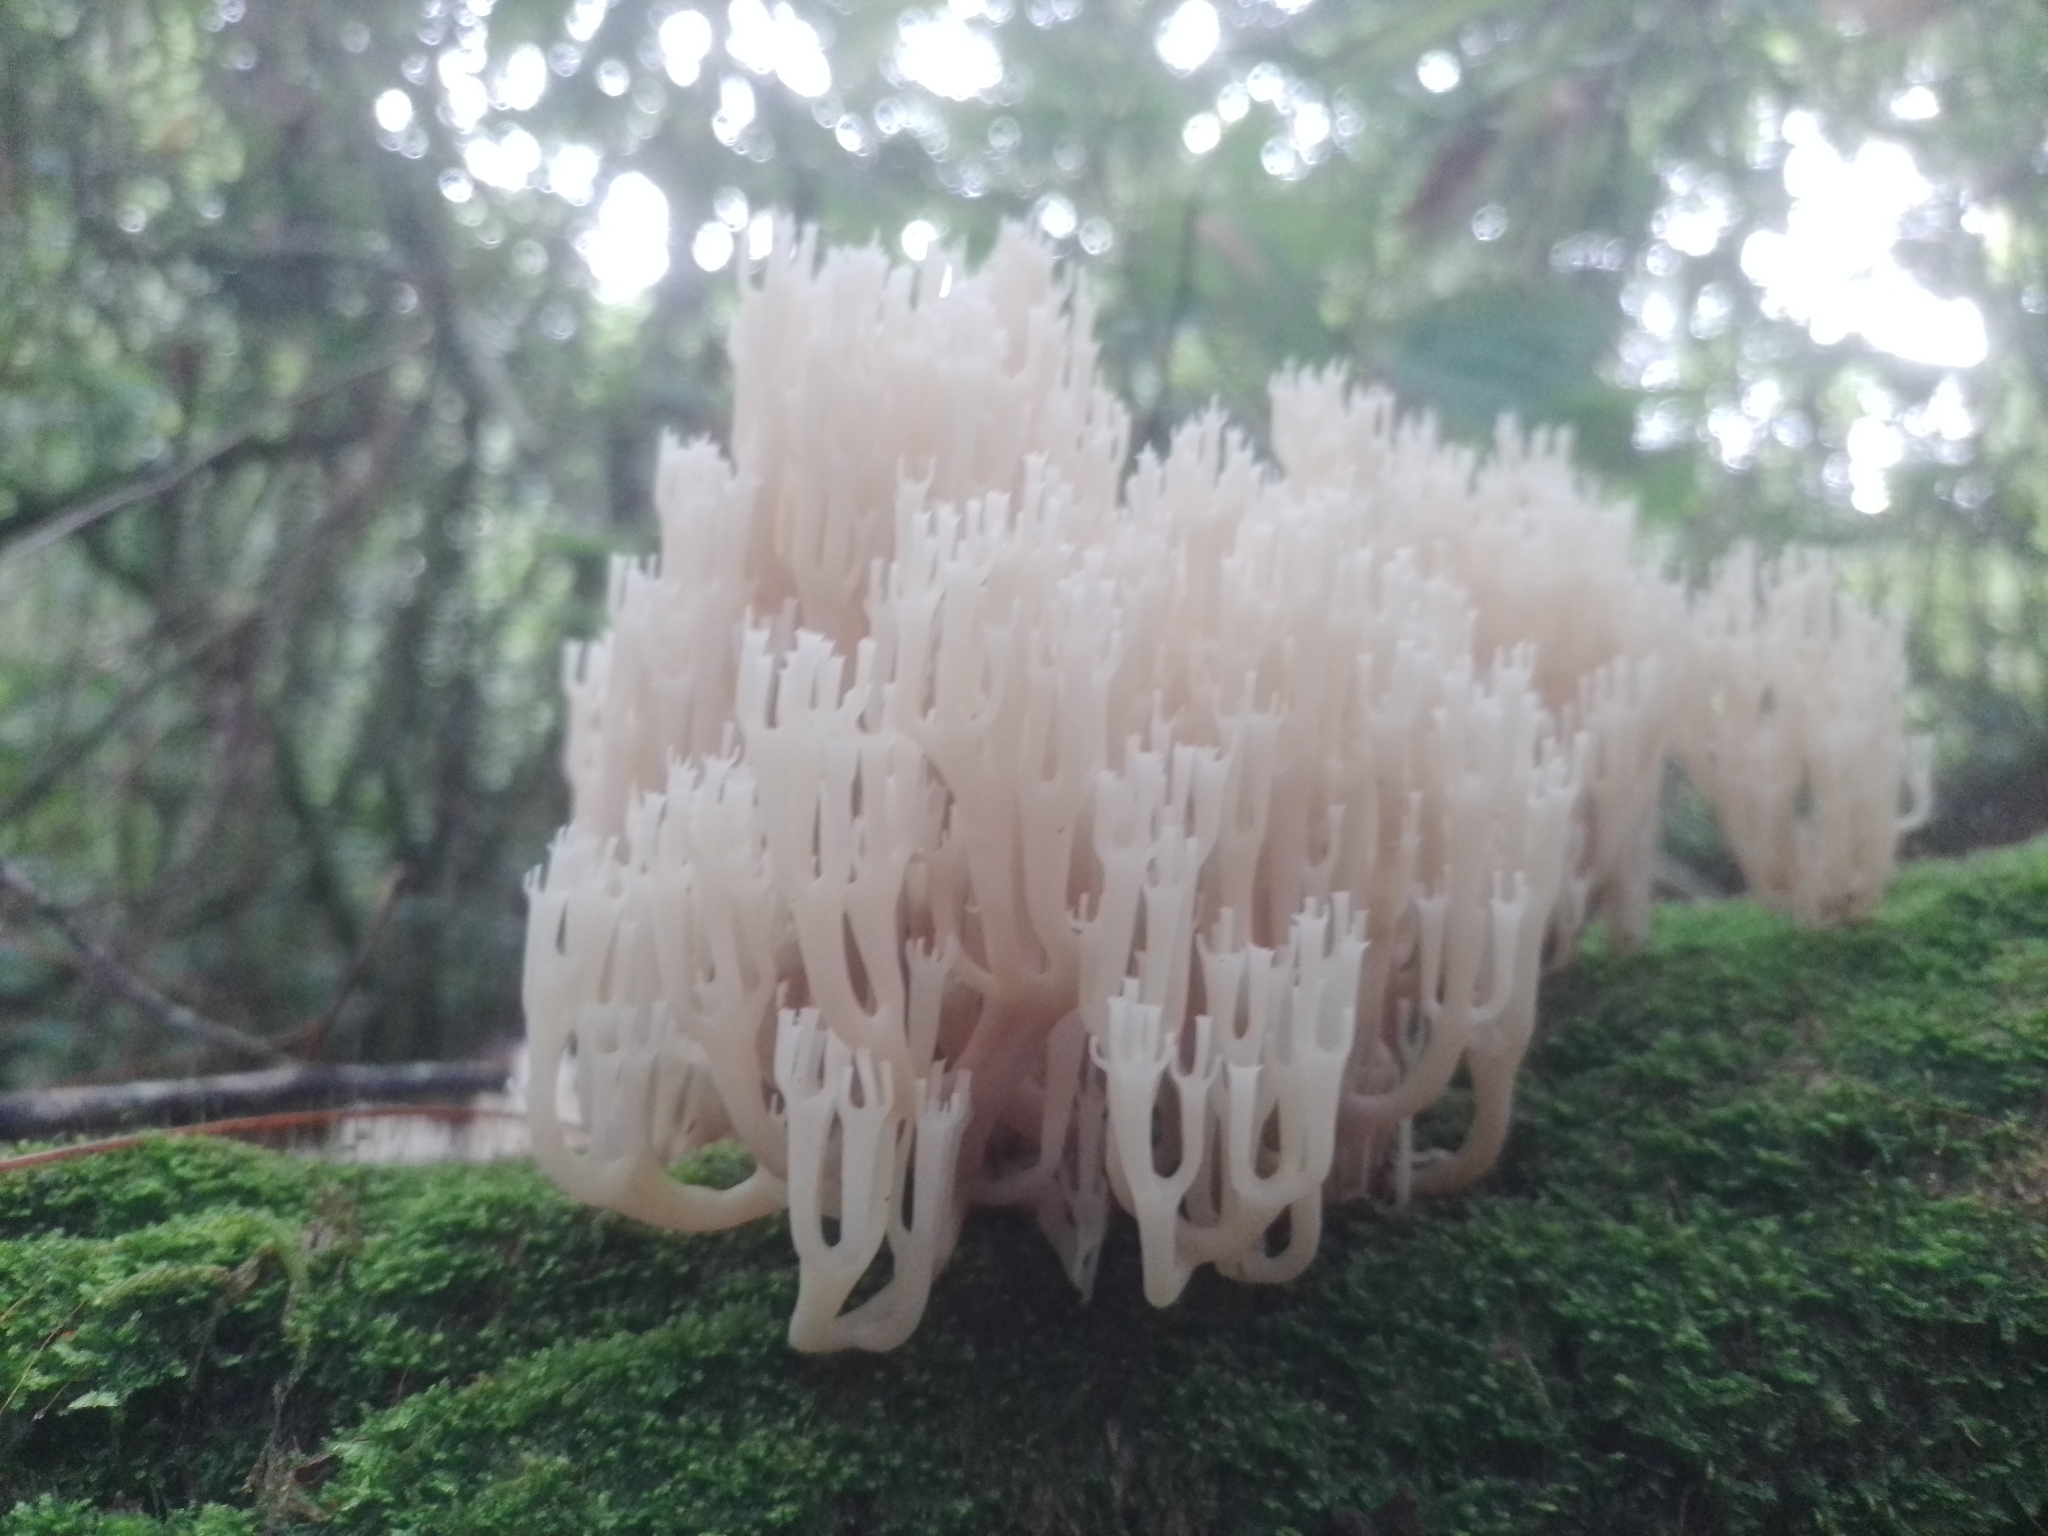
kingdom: Fungi
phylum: Basidiomycota
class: Agaricomycetes
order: Russulales
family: Auriscalpiaceae
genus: Artomyces
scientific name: Artomyces pyxidatus
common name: Crown-tipped coral fungus
